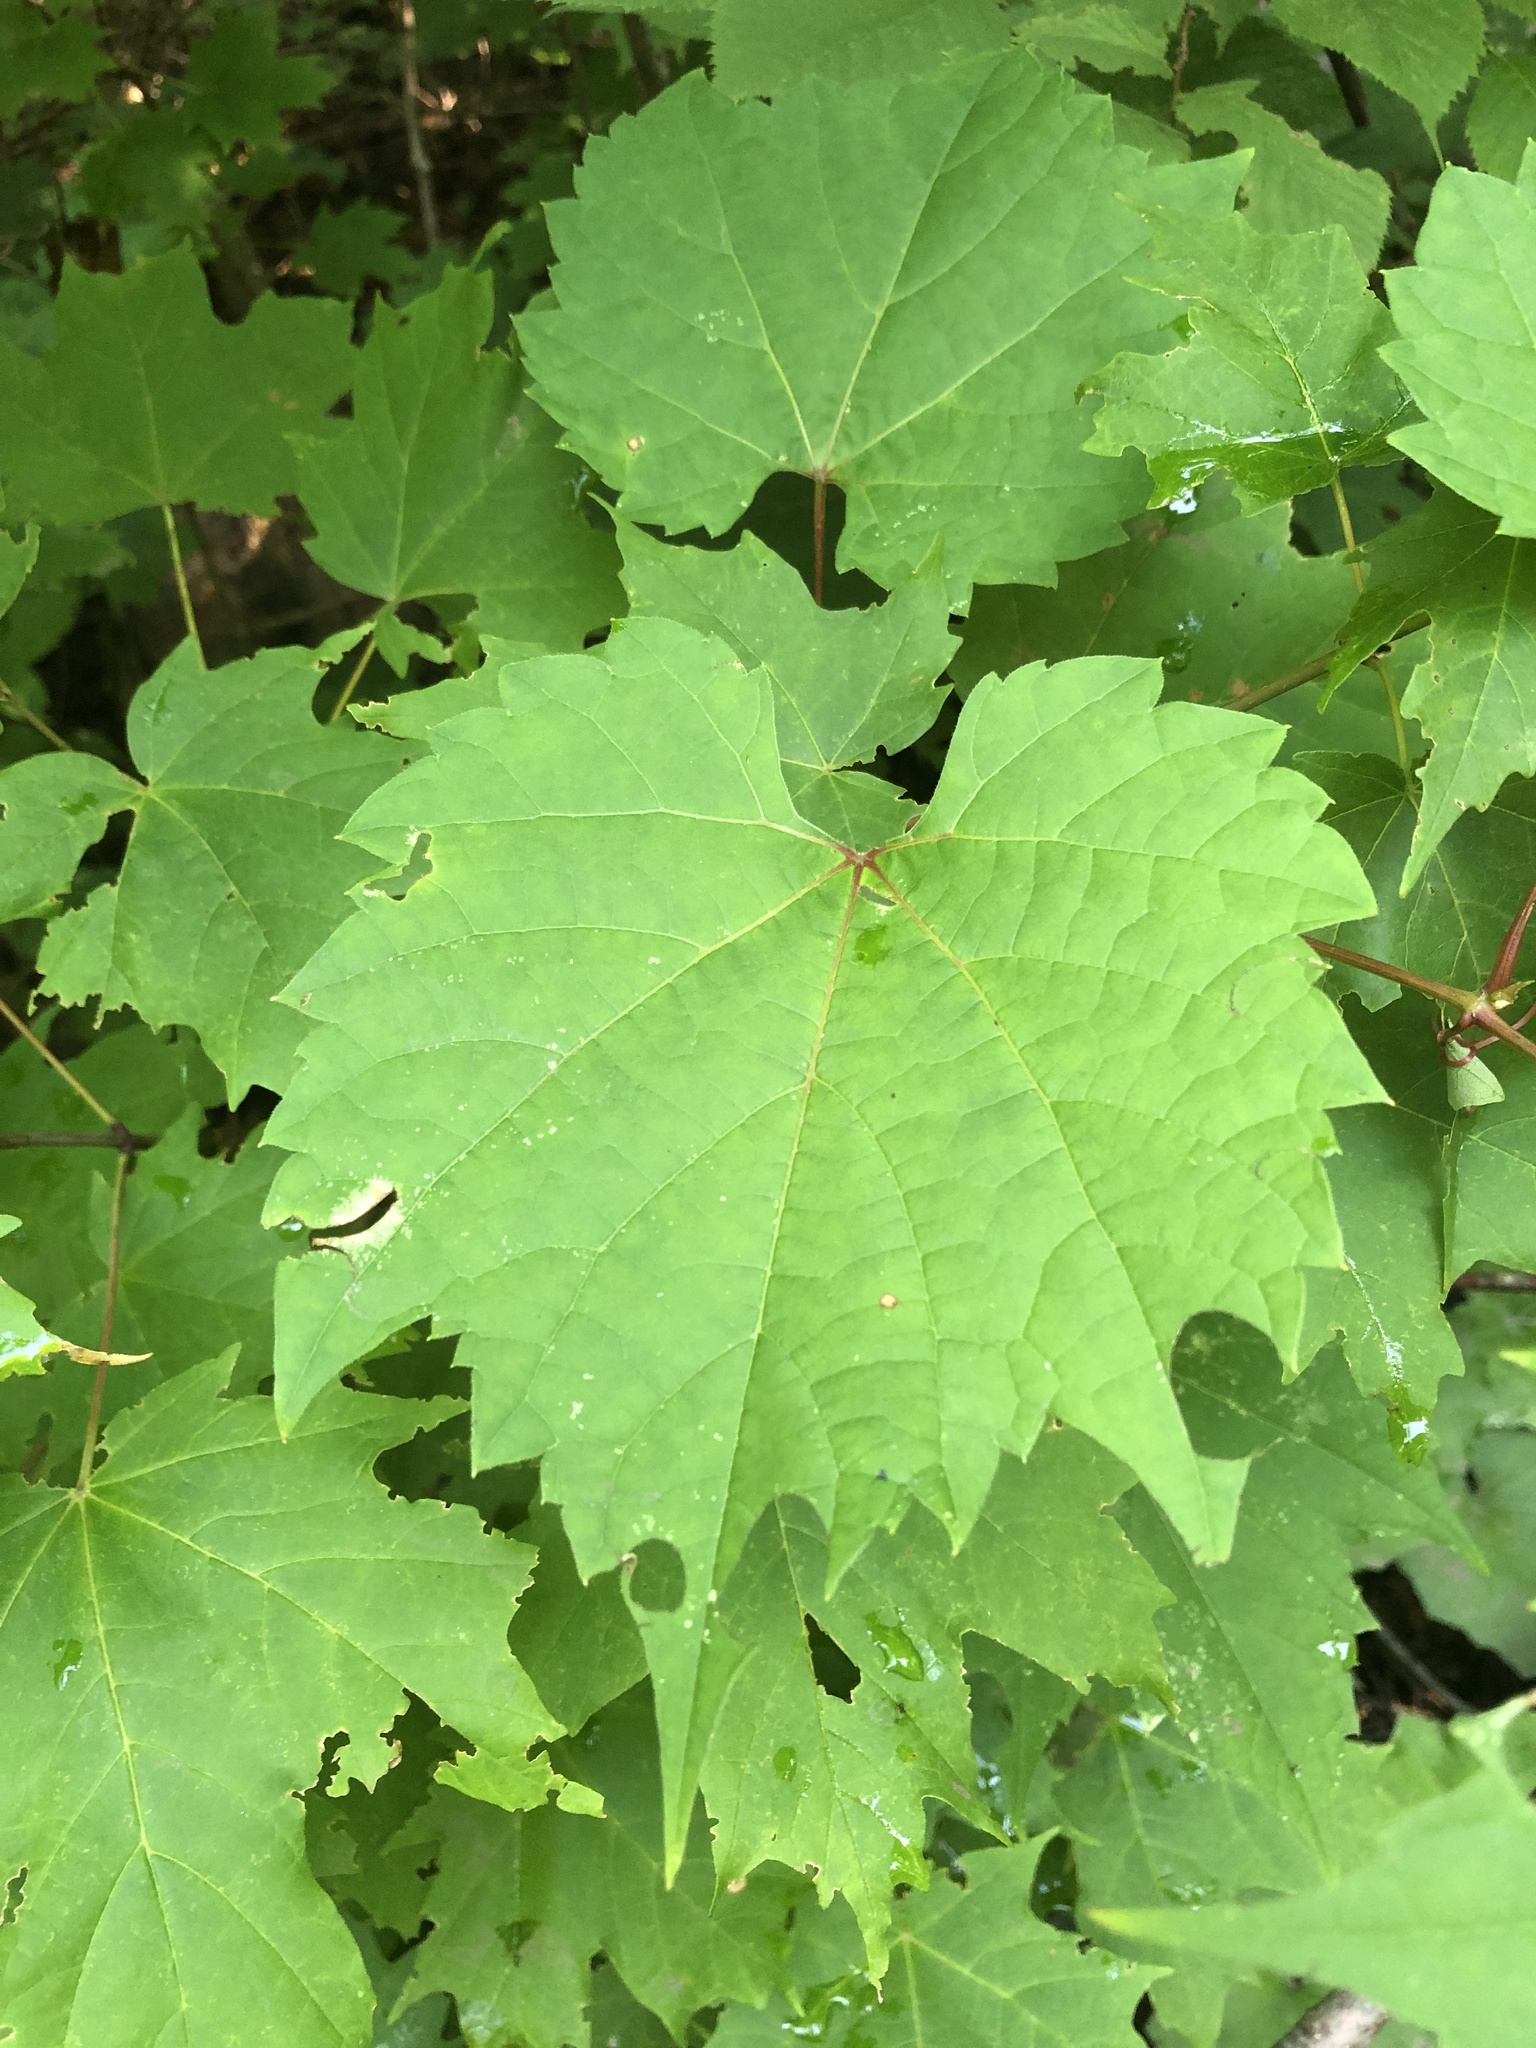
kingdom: Plantae
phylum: Tracheophyta
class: Magnoliopsida
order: Vitales
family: Vitaceae
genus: Vitis
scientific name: Vitis riparia
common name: Frost grape
